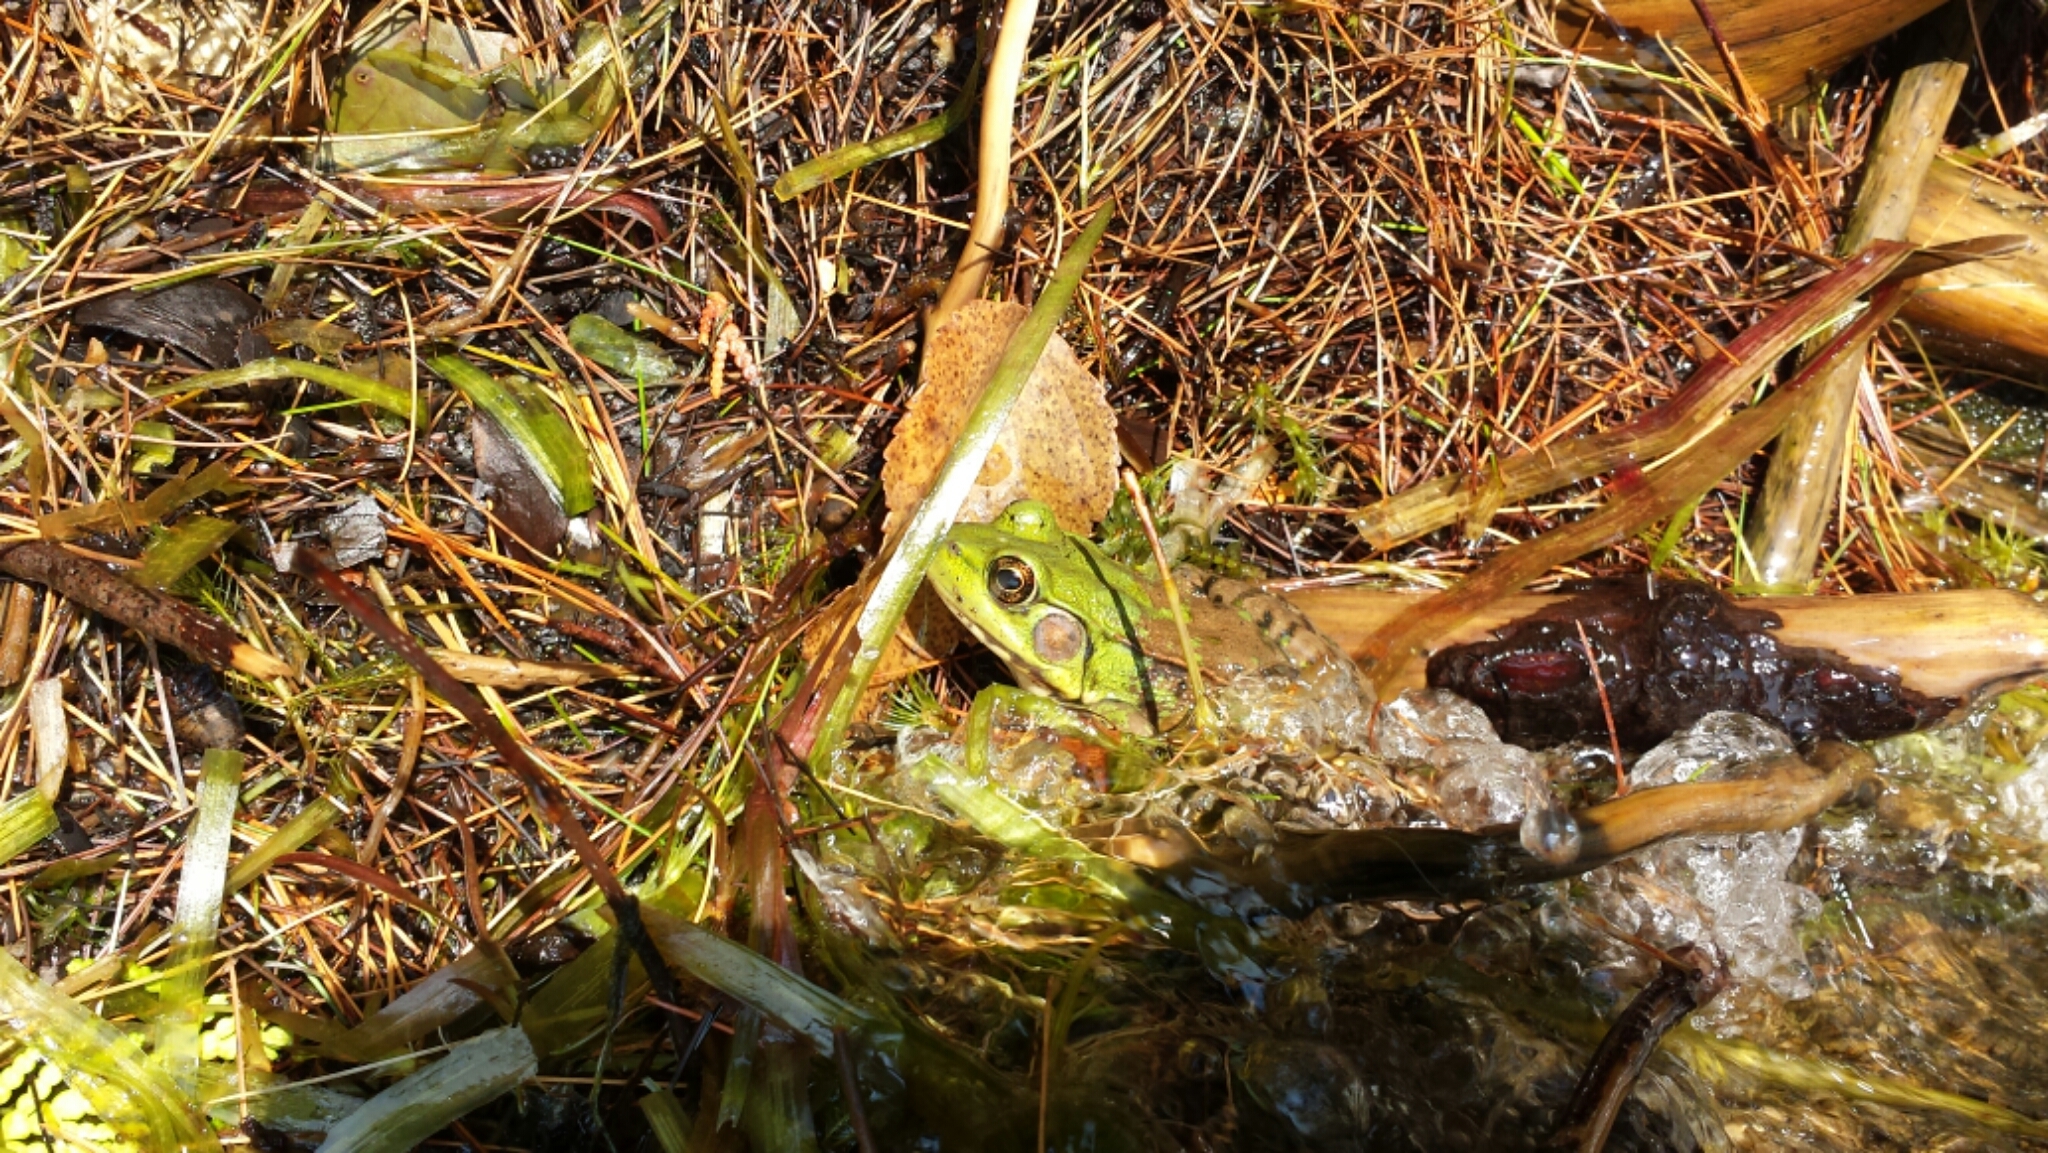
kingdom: Animalia
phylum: Chordata
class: Amphibia
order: Anura
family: Ranidae
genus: Lithobates
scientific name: Lithobates clamitans
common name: Green frog
